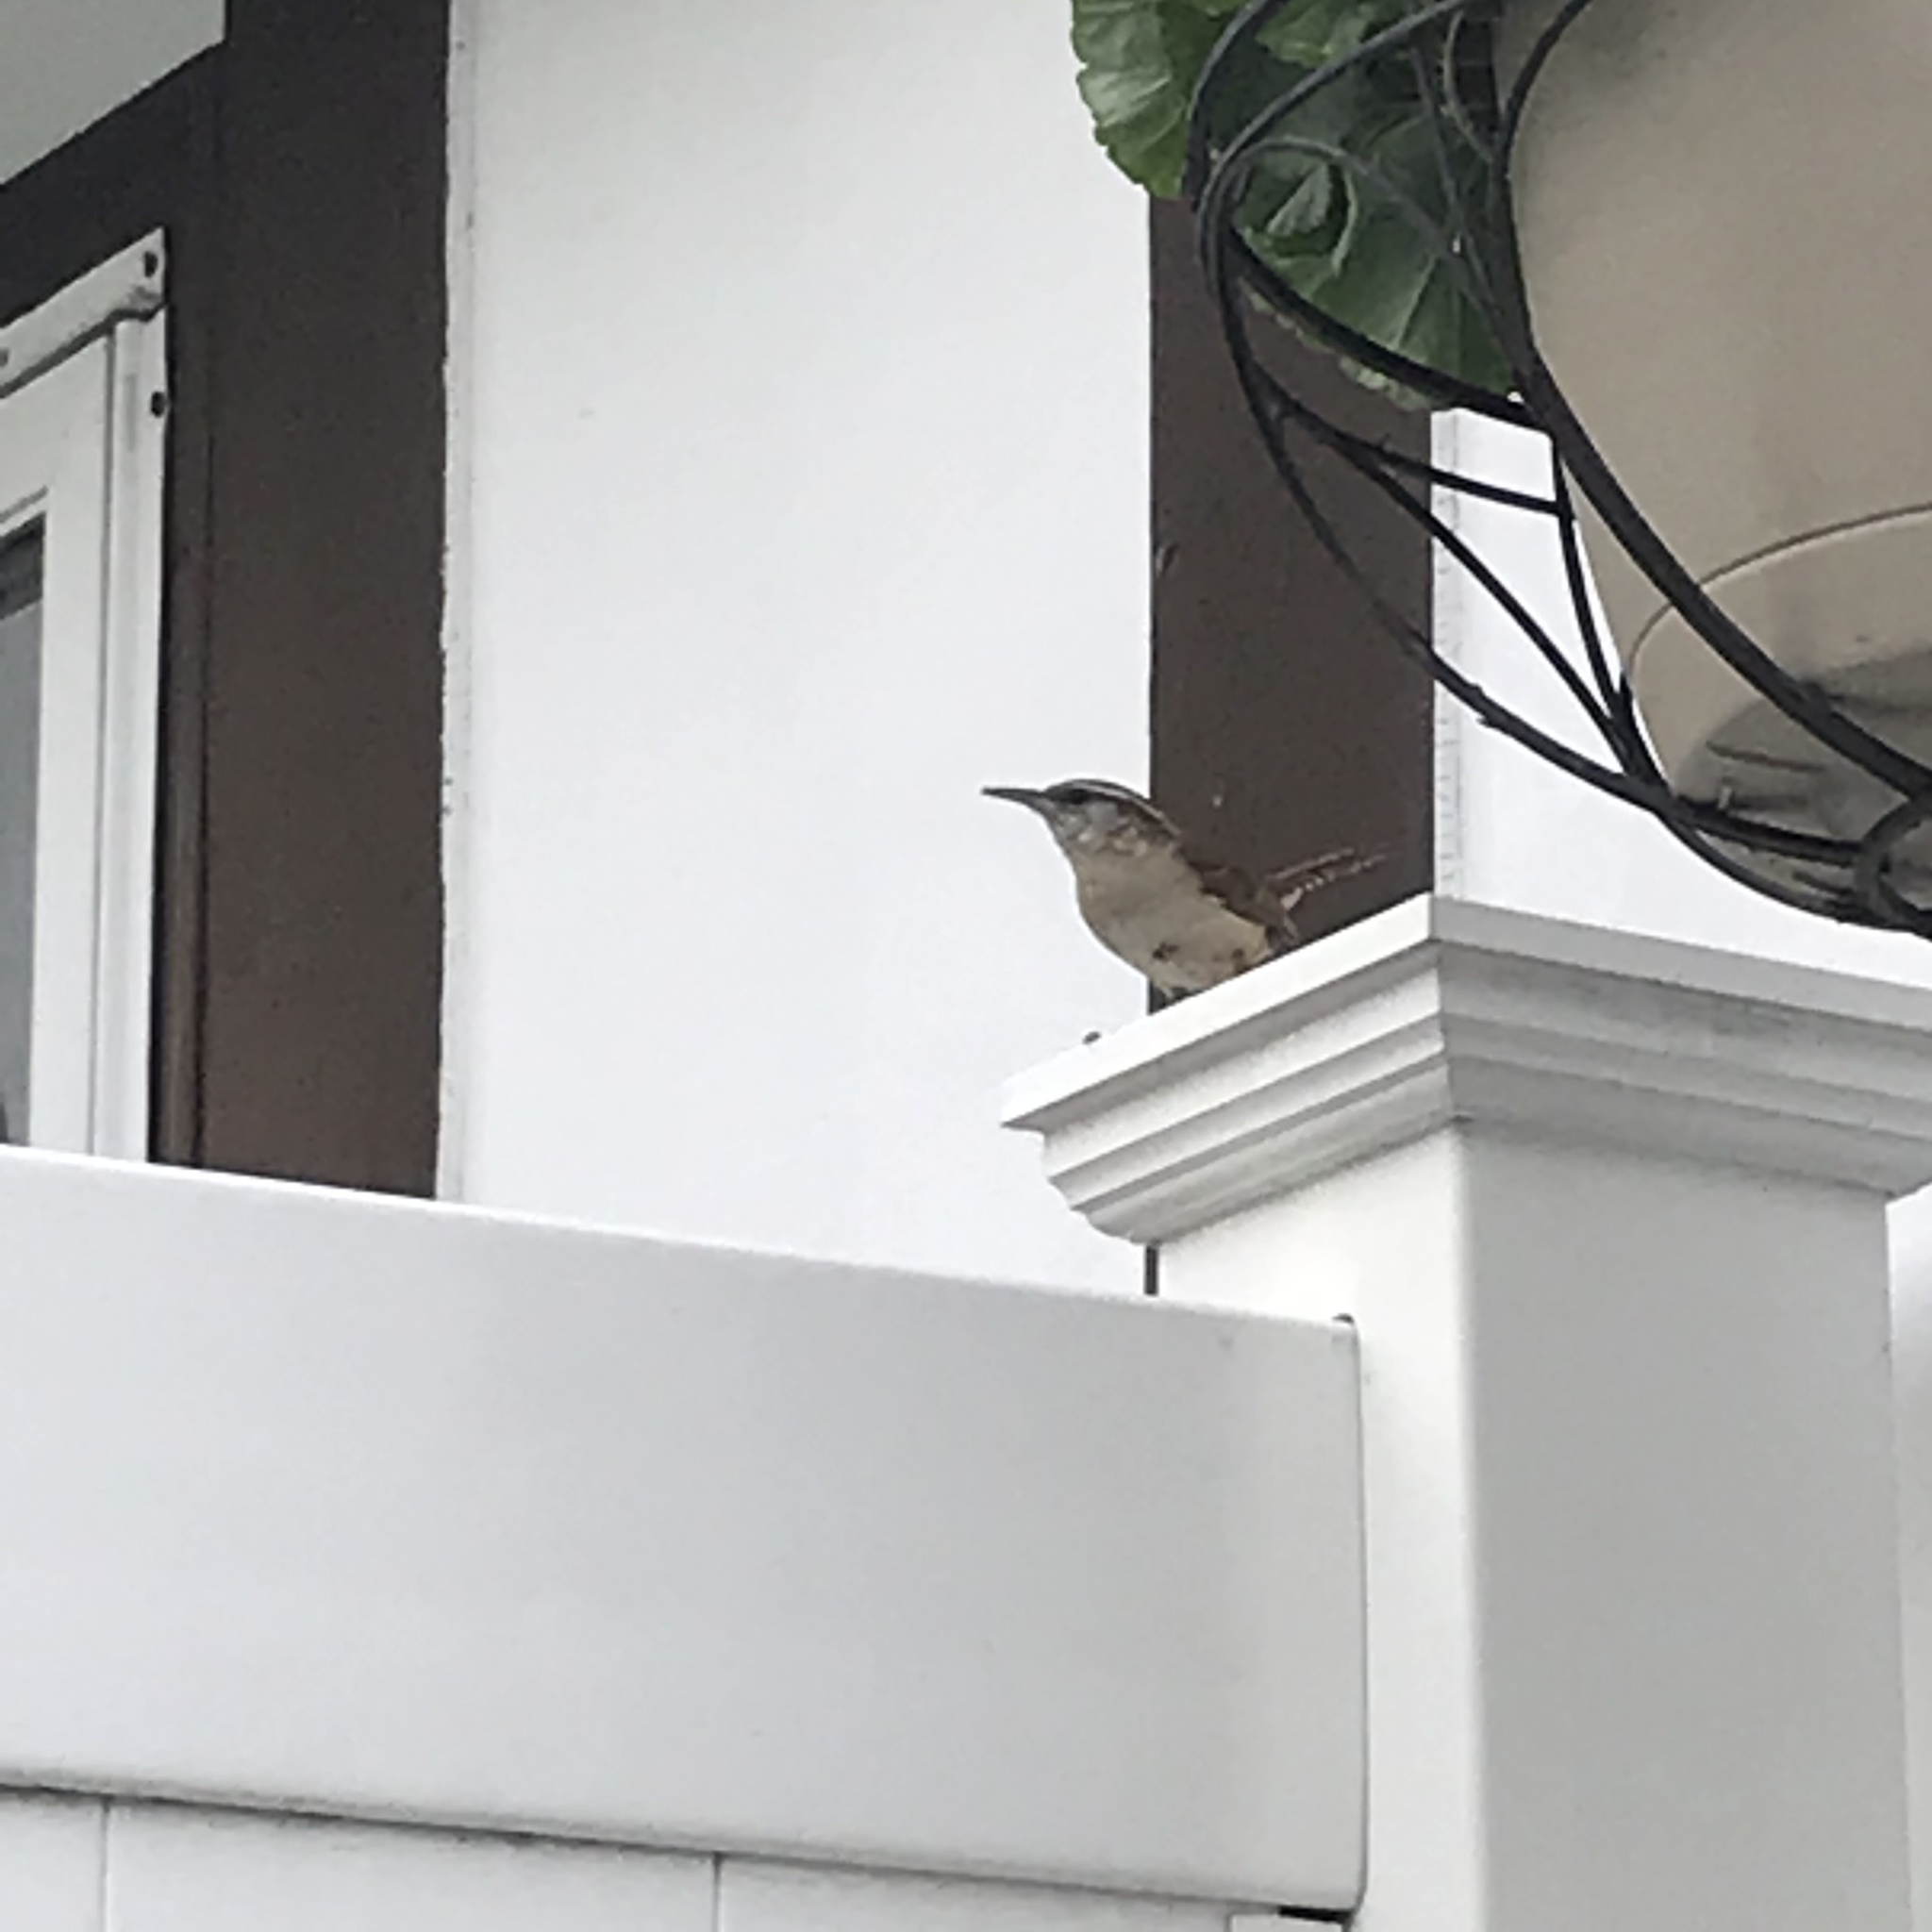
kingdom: Animalia
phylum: Chordata
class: Aves
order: Passeriformes
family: Troglodytidae
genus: Thryothorus
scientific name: Thryothorus ludovicianus
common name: Carolina wren
